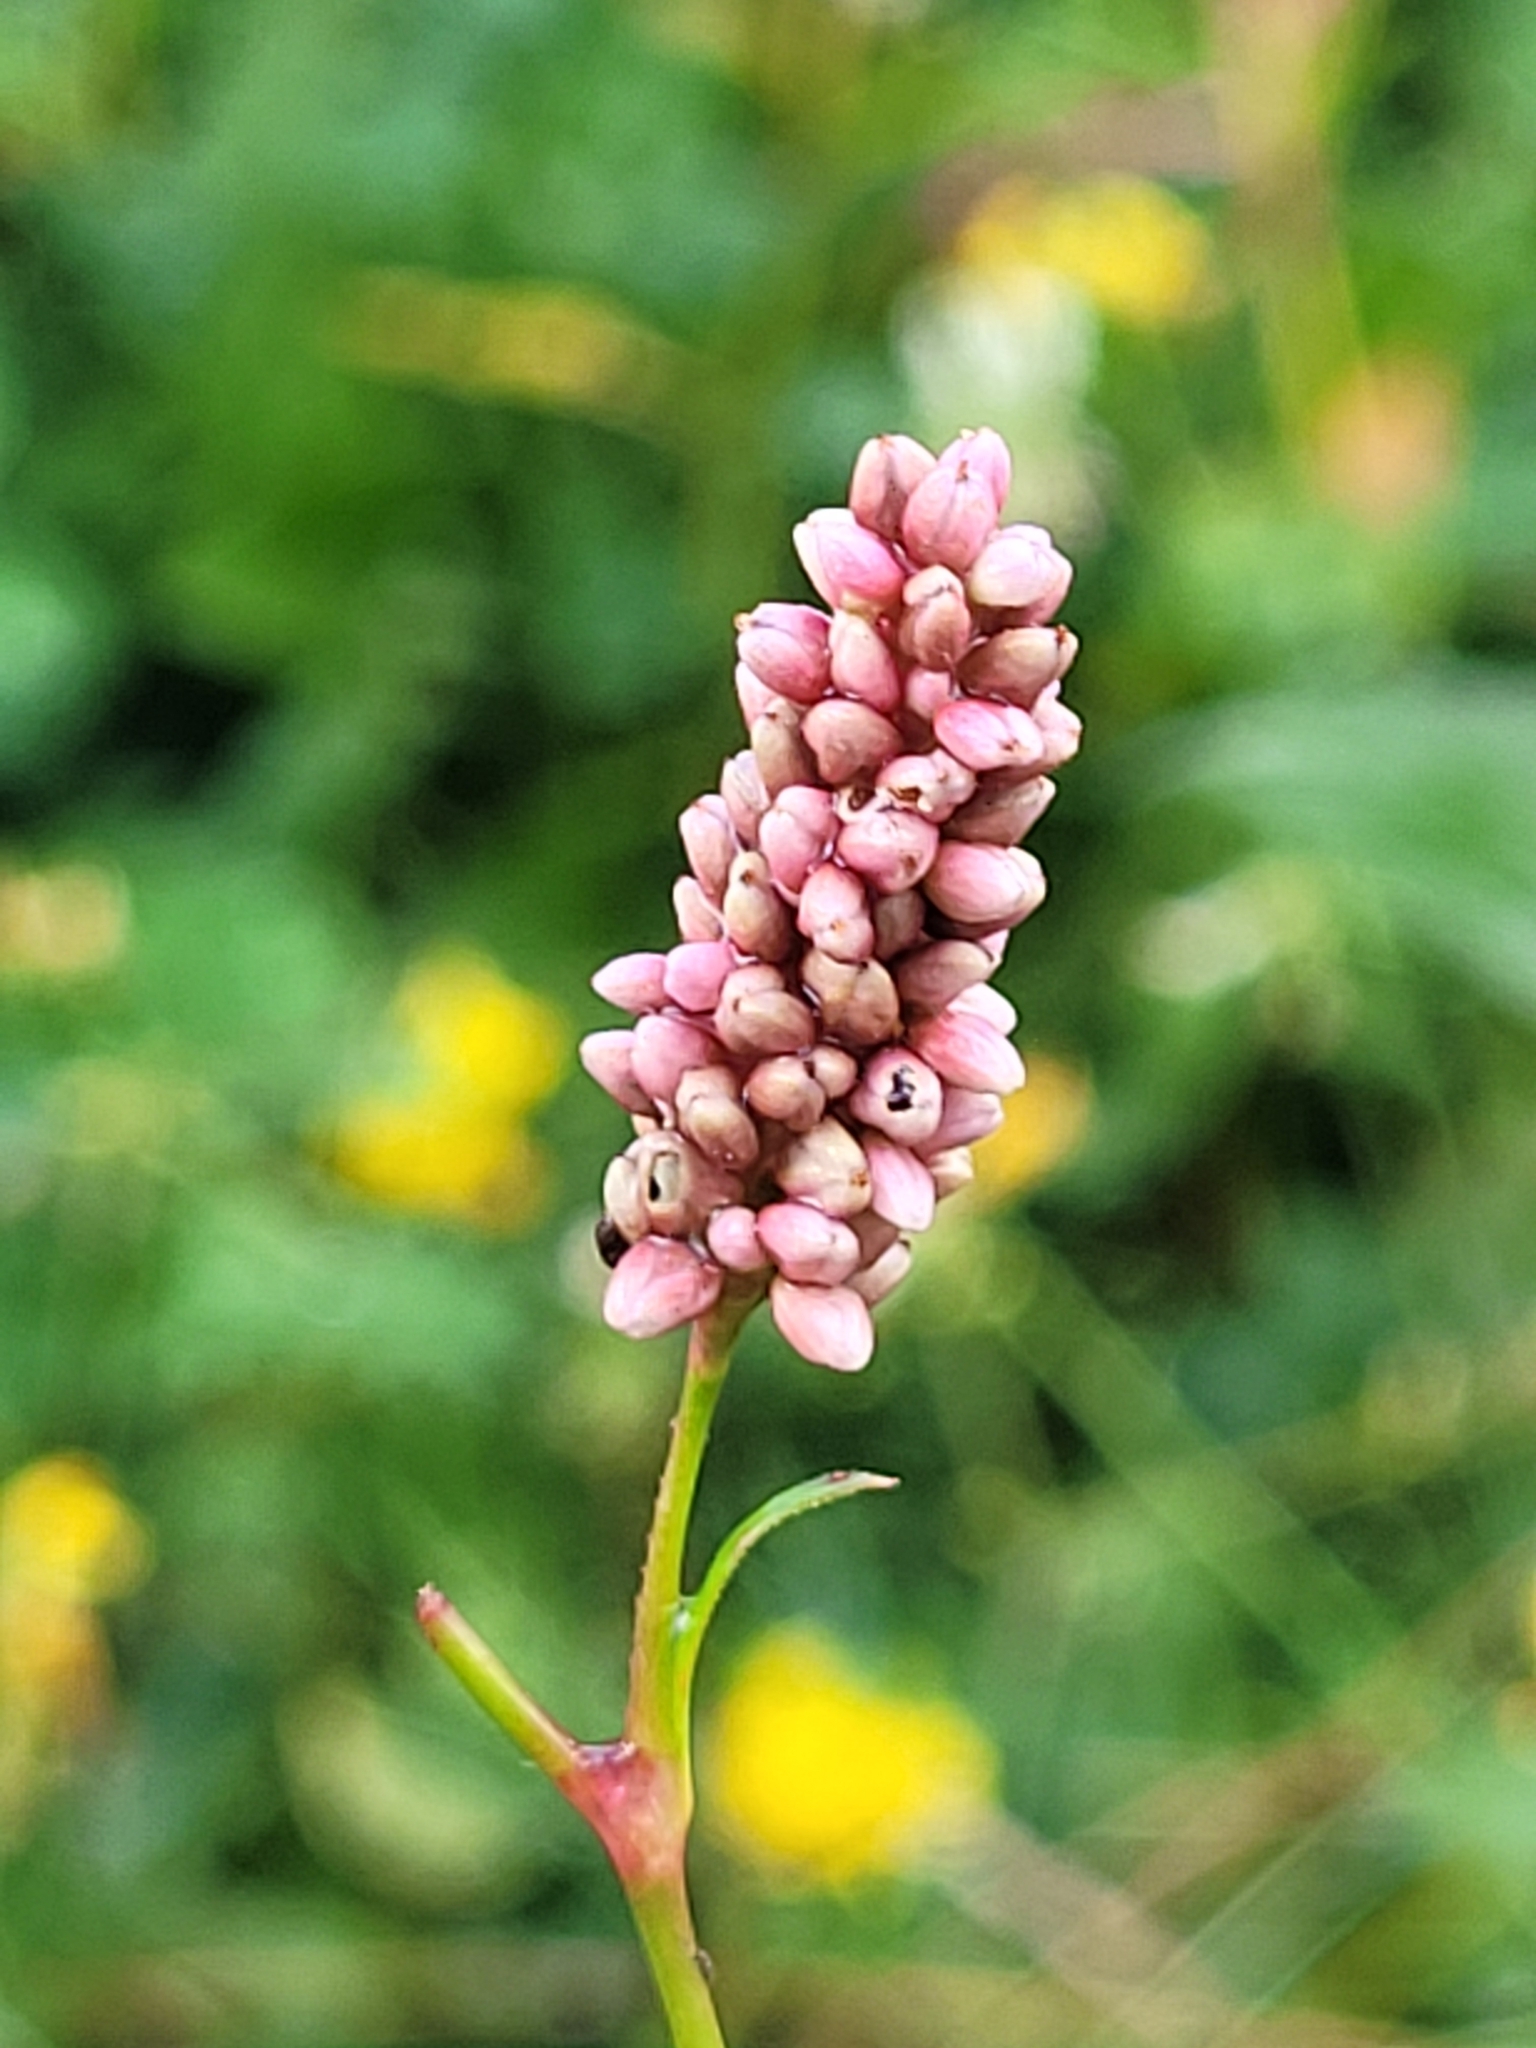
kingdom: Plantae
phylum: Tracheophyta
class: Magnoliopsida
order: Caryophyllales
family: Polygonaceae
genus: Persicaria
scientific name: Persicaria maculosa
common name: Redshank
